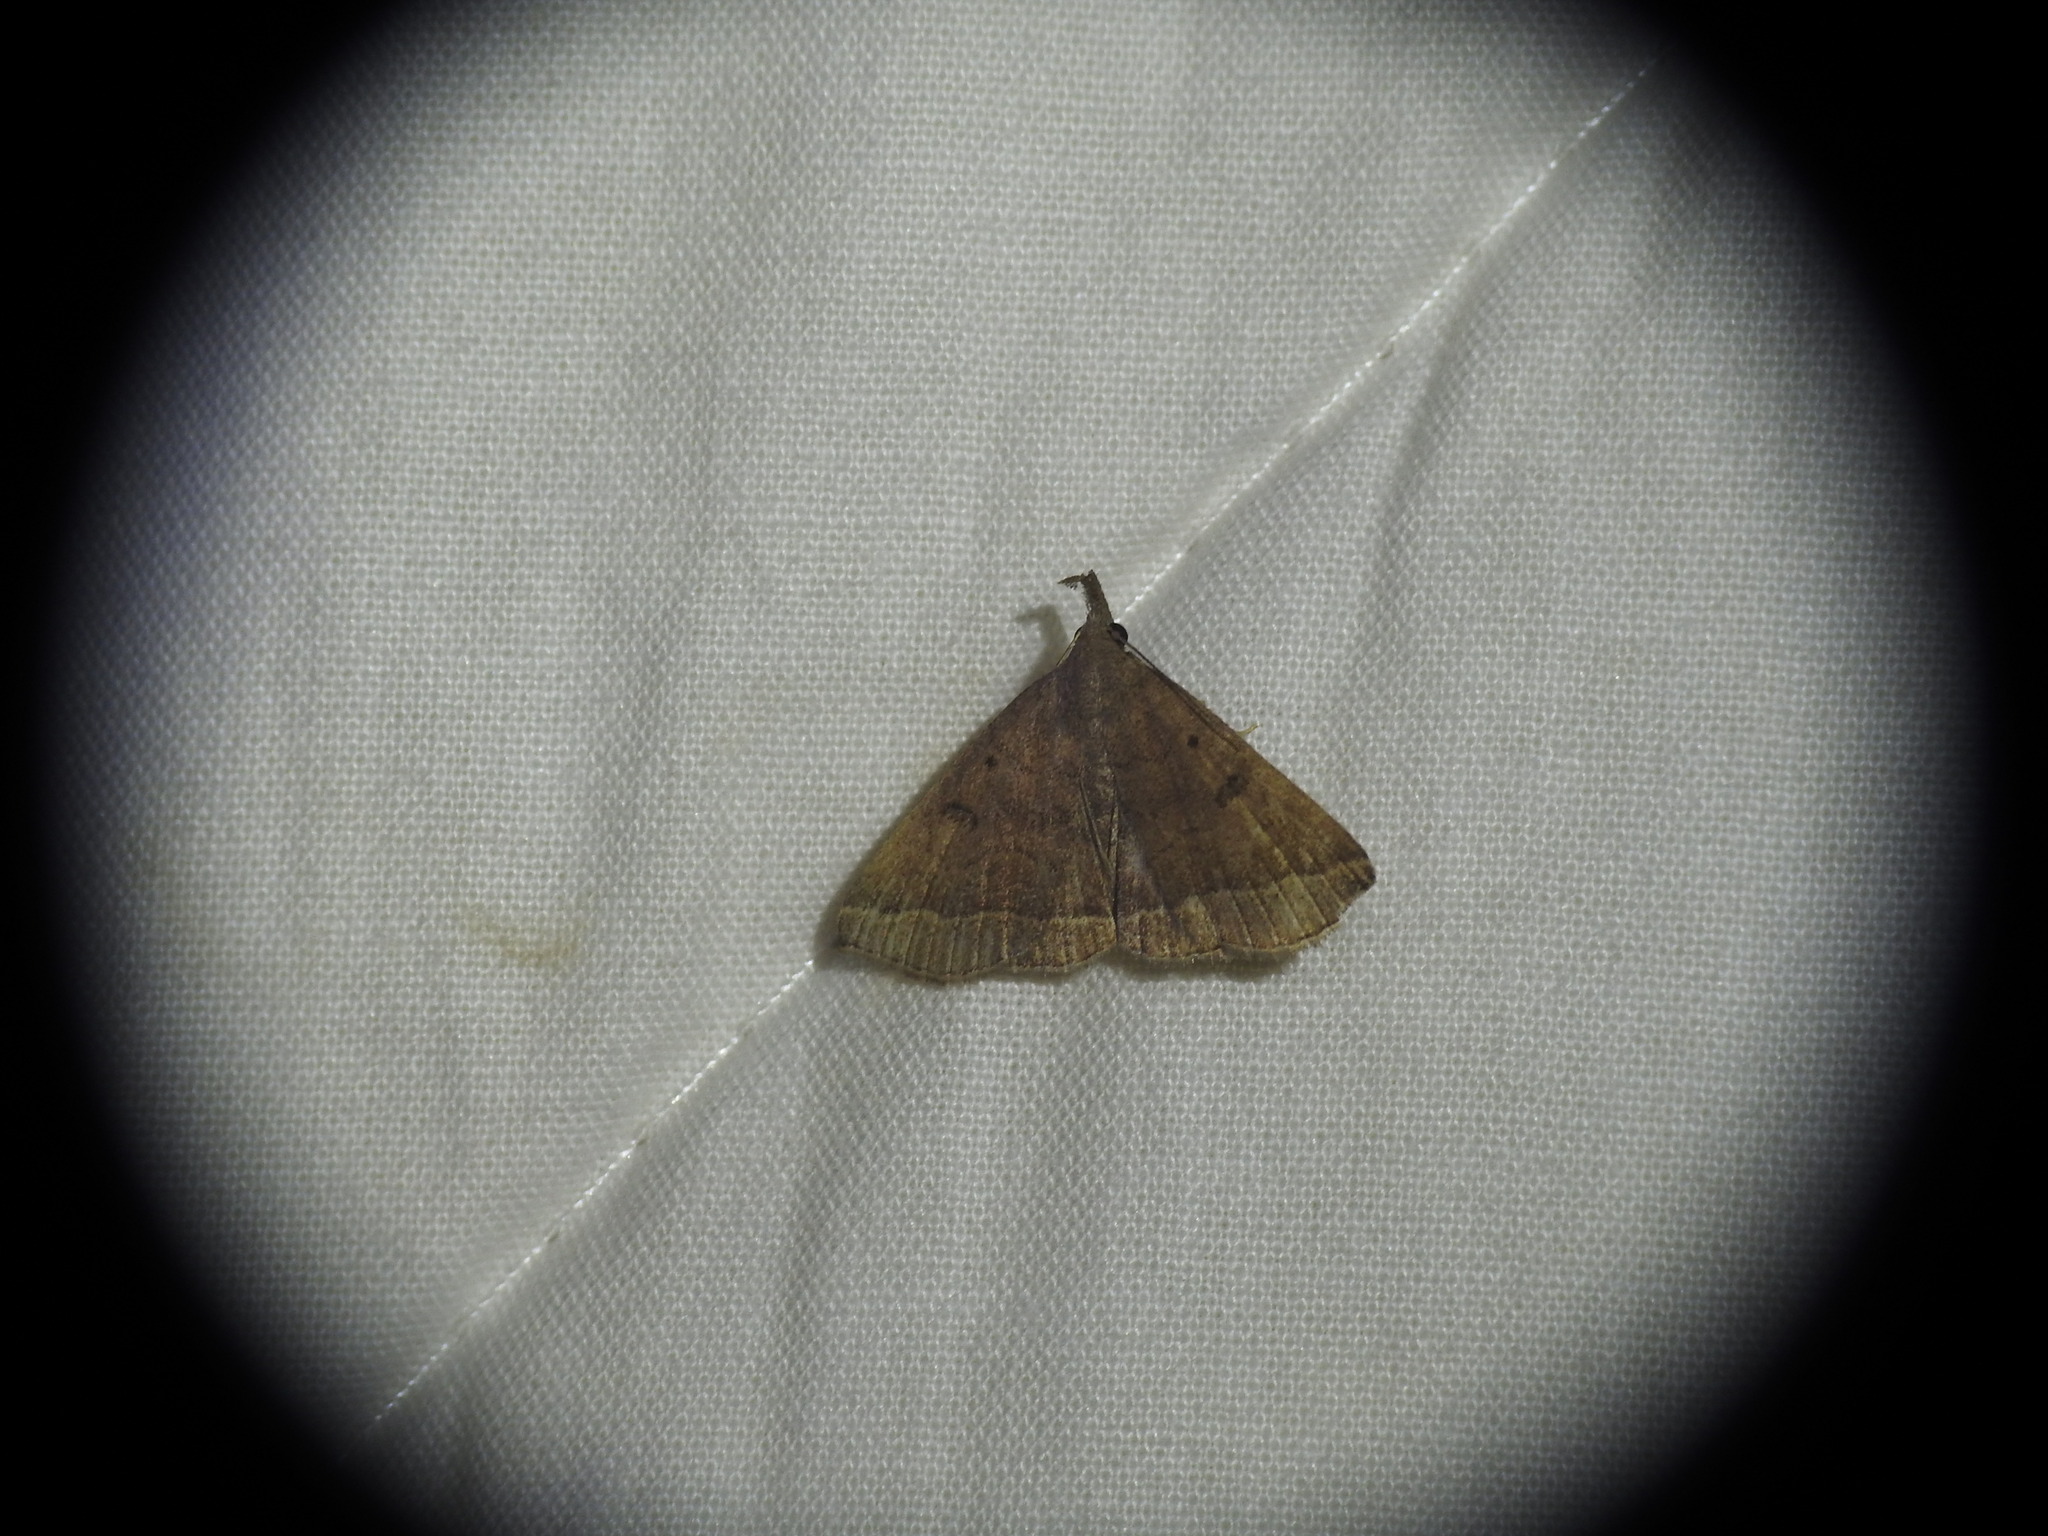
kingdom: Animalia
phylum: Arthropoda
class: Insecta
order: Lepidoptera
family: Erebidae
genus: Pechipogo
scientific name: Pechipogo plumigeralis
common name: Plumed fan-foot
